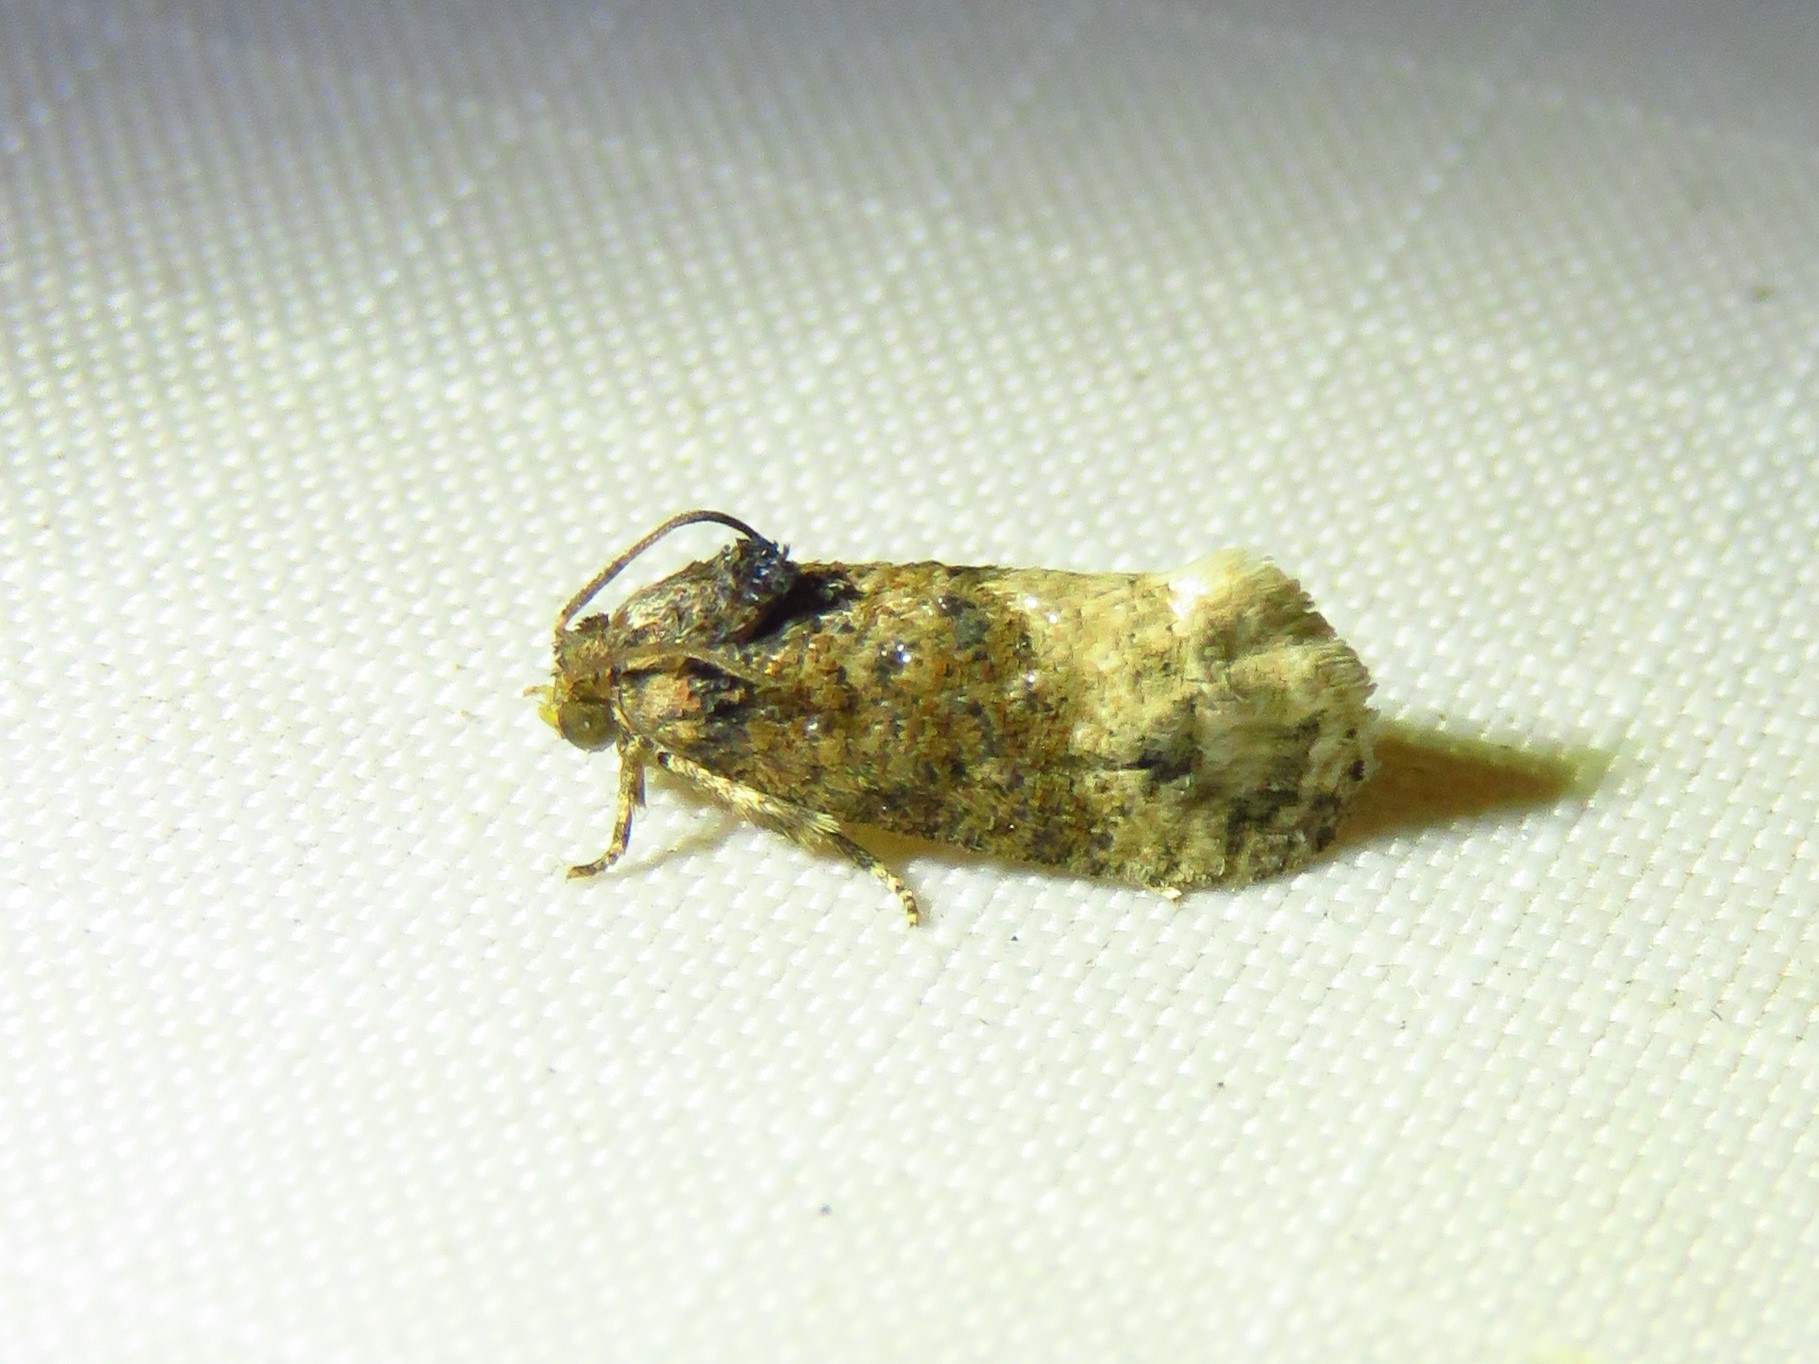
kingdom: Animalia
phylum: Arthropoda
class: Insecta
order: Lepidoptera
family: Tortricidae
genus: Ecdytolopha
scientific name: Ecdytolopha mana
